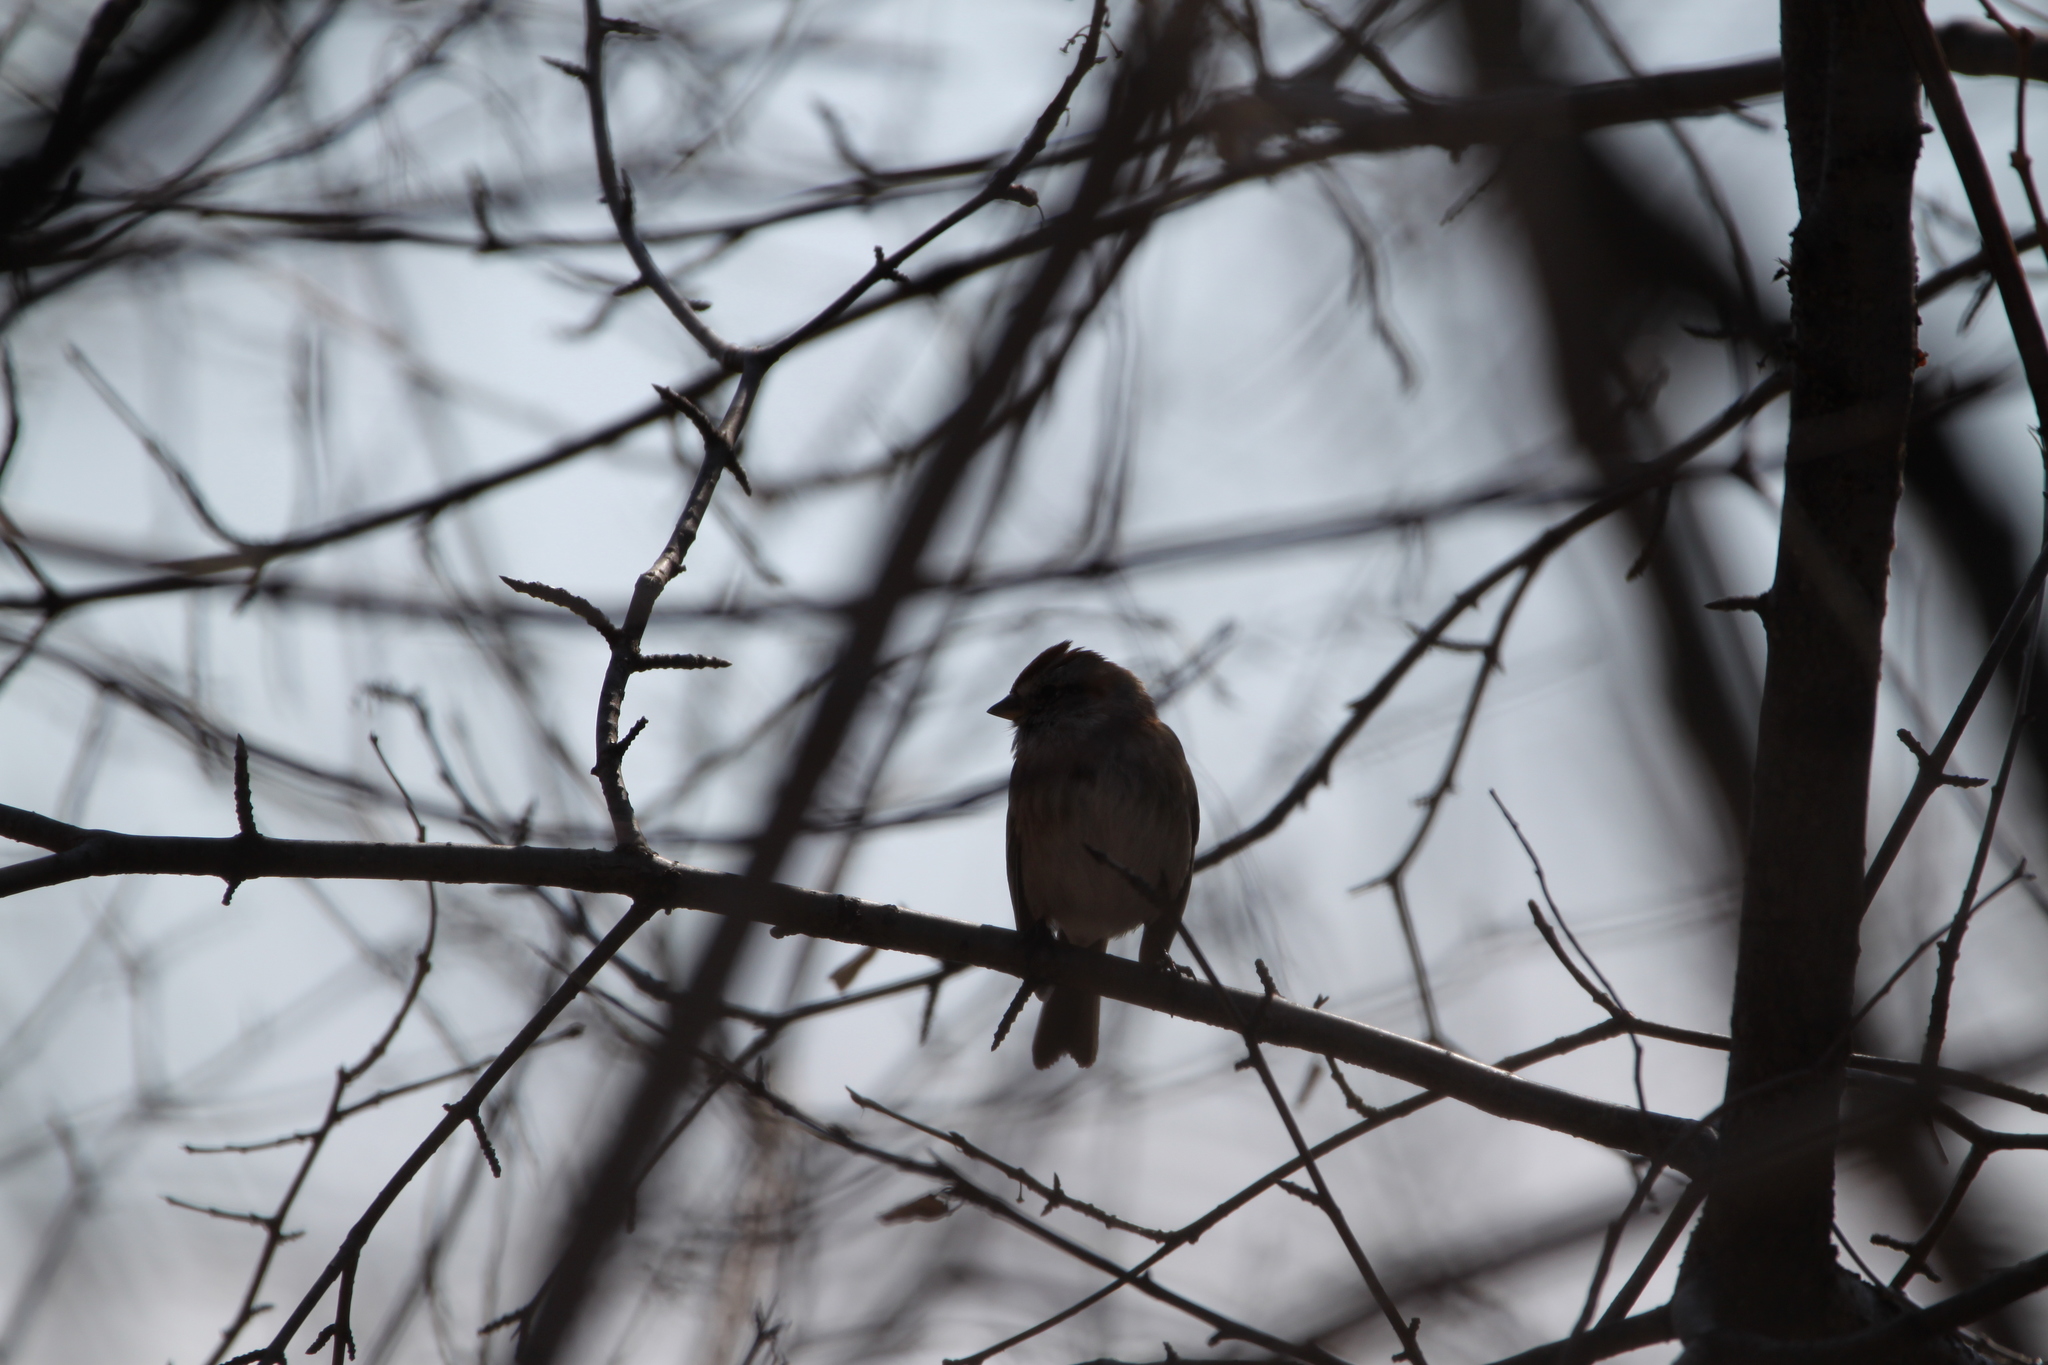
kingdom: Animalia
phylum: Chordata
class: Aves
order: Passeriformes
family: Passerellidae
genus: Spizelloides
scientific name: Spizelloides arborea
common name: American tree sparrow
